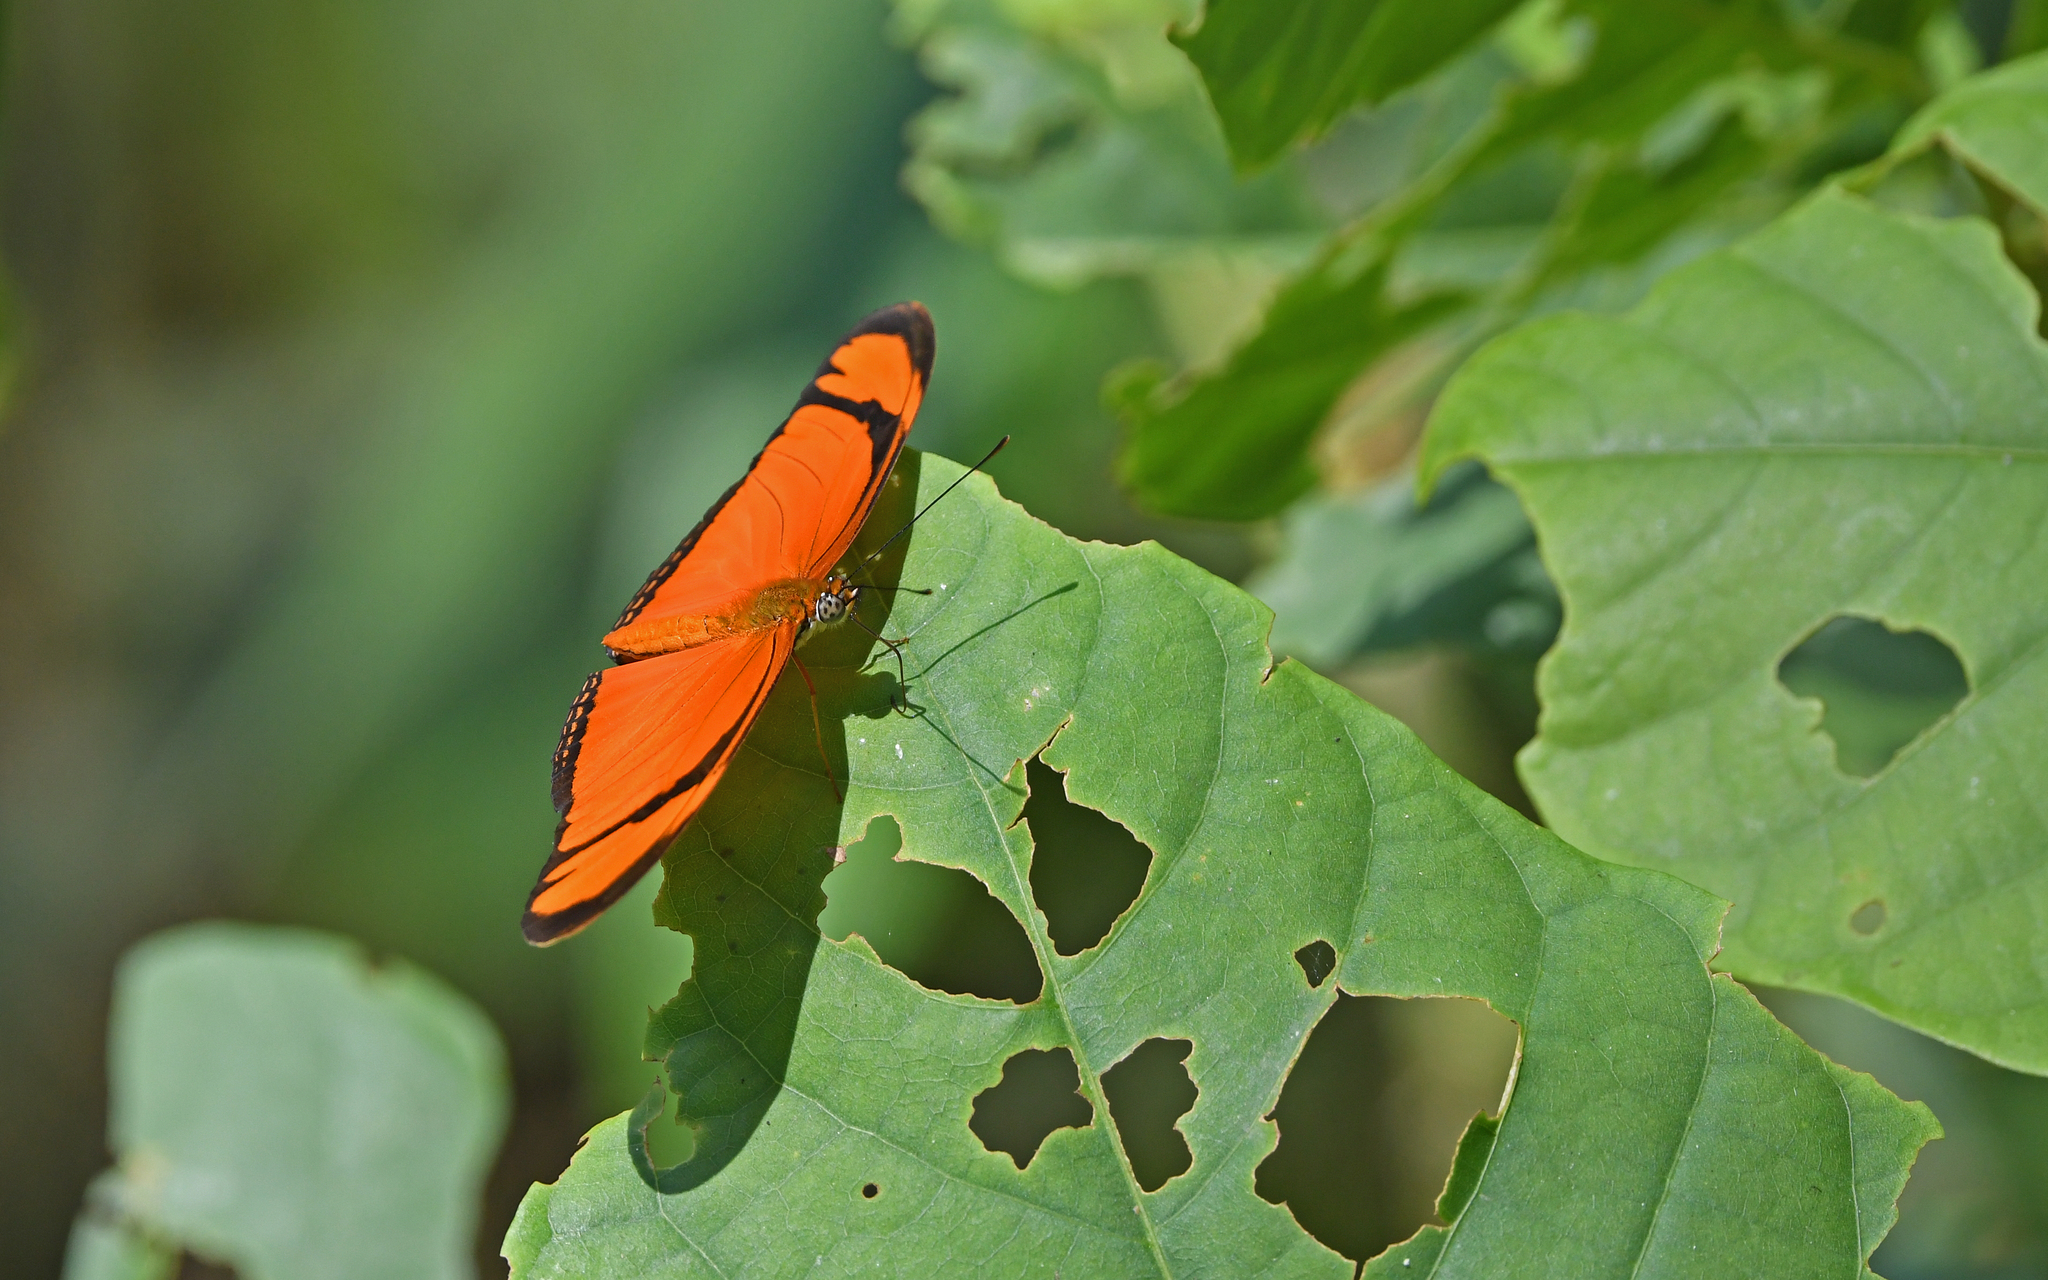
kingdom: Animalia
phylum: Arthropoda
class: Insecta
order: Lepidoptera
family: Nymphalidae
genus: Dryas
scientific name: Dryas iulia
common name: Flambeau
